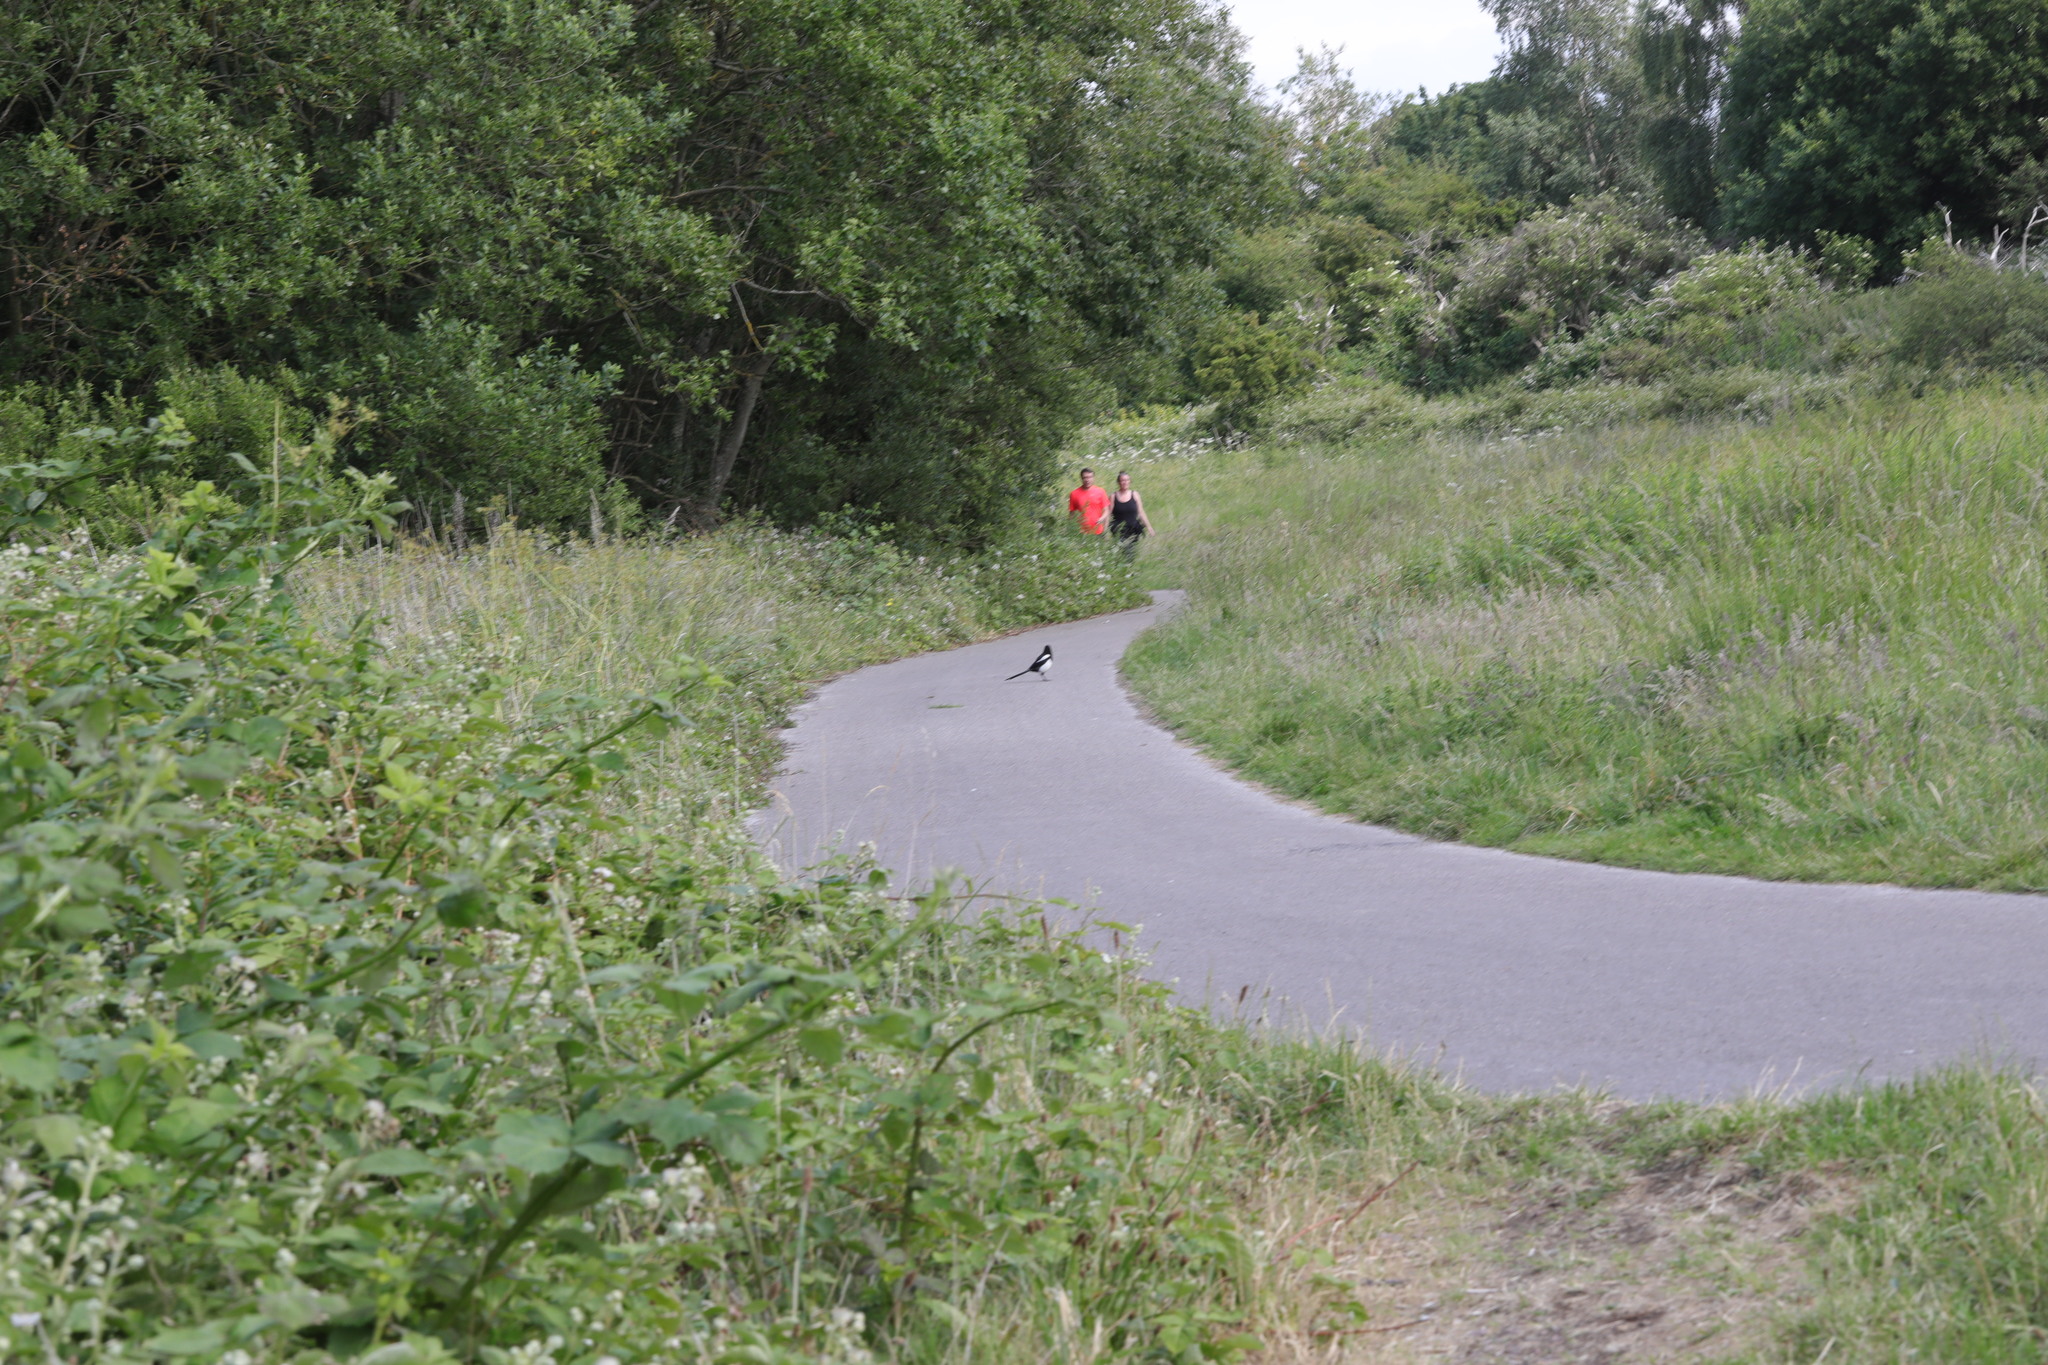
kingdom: Animalia
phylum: Chordata
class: Aves
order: Passeriformes
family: Corvidae
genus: Pica
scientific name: Pica pica
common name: Eurasian magpie
